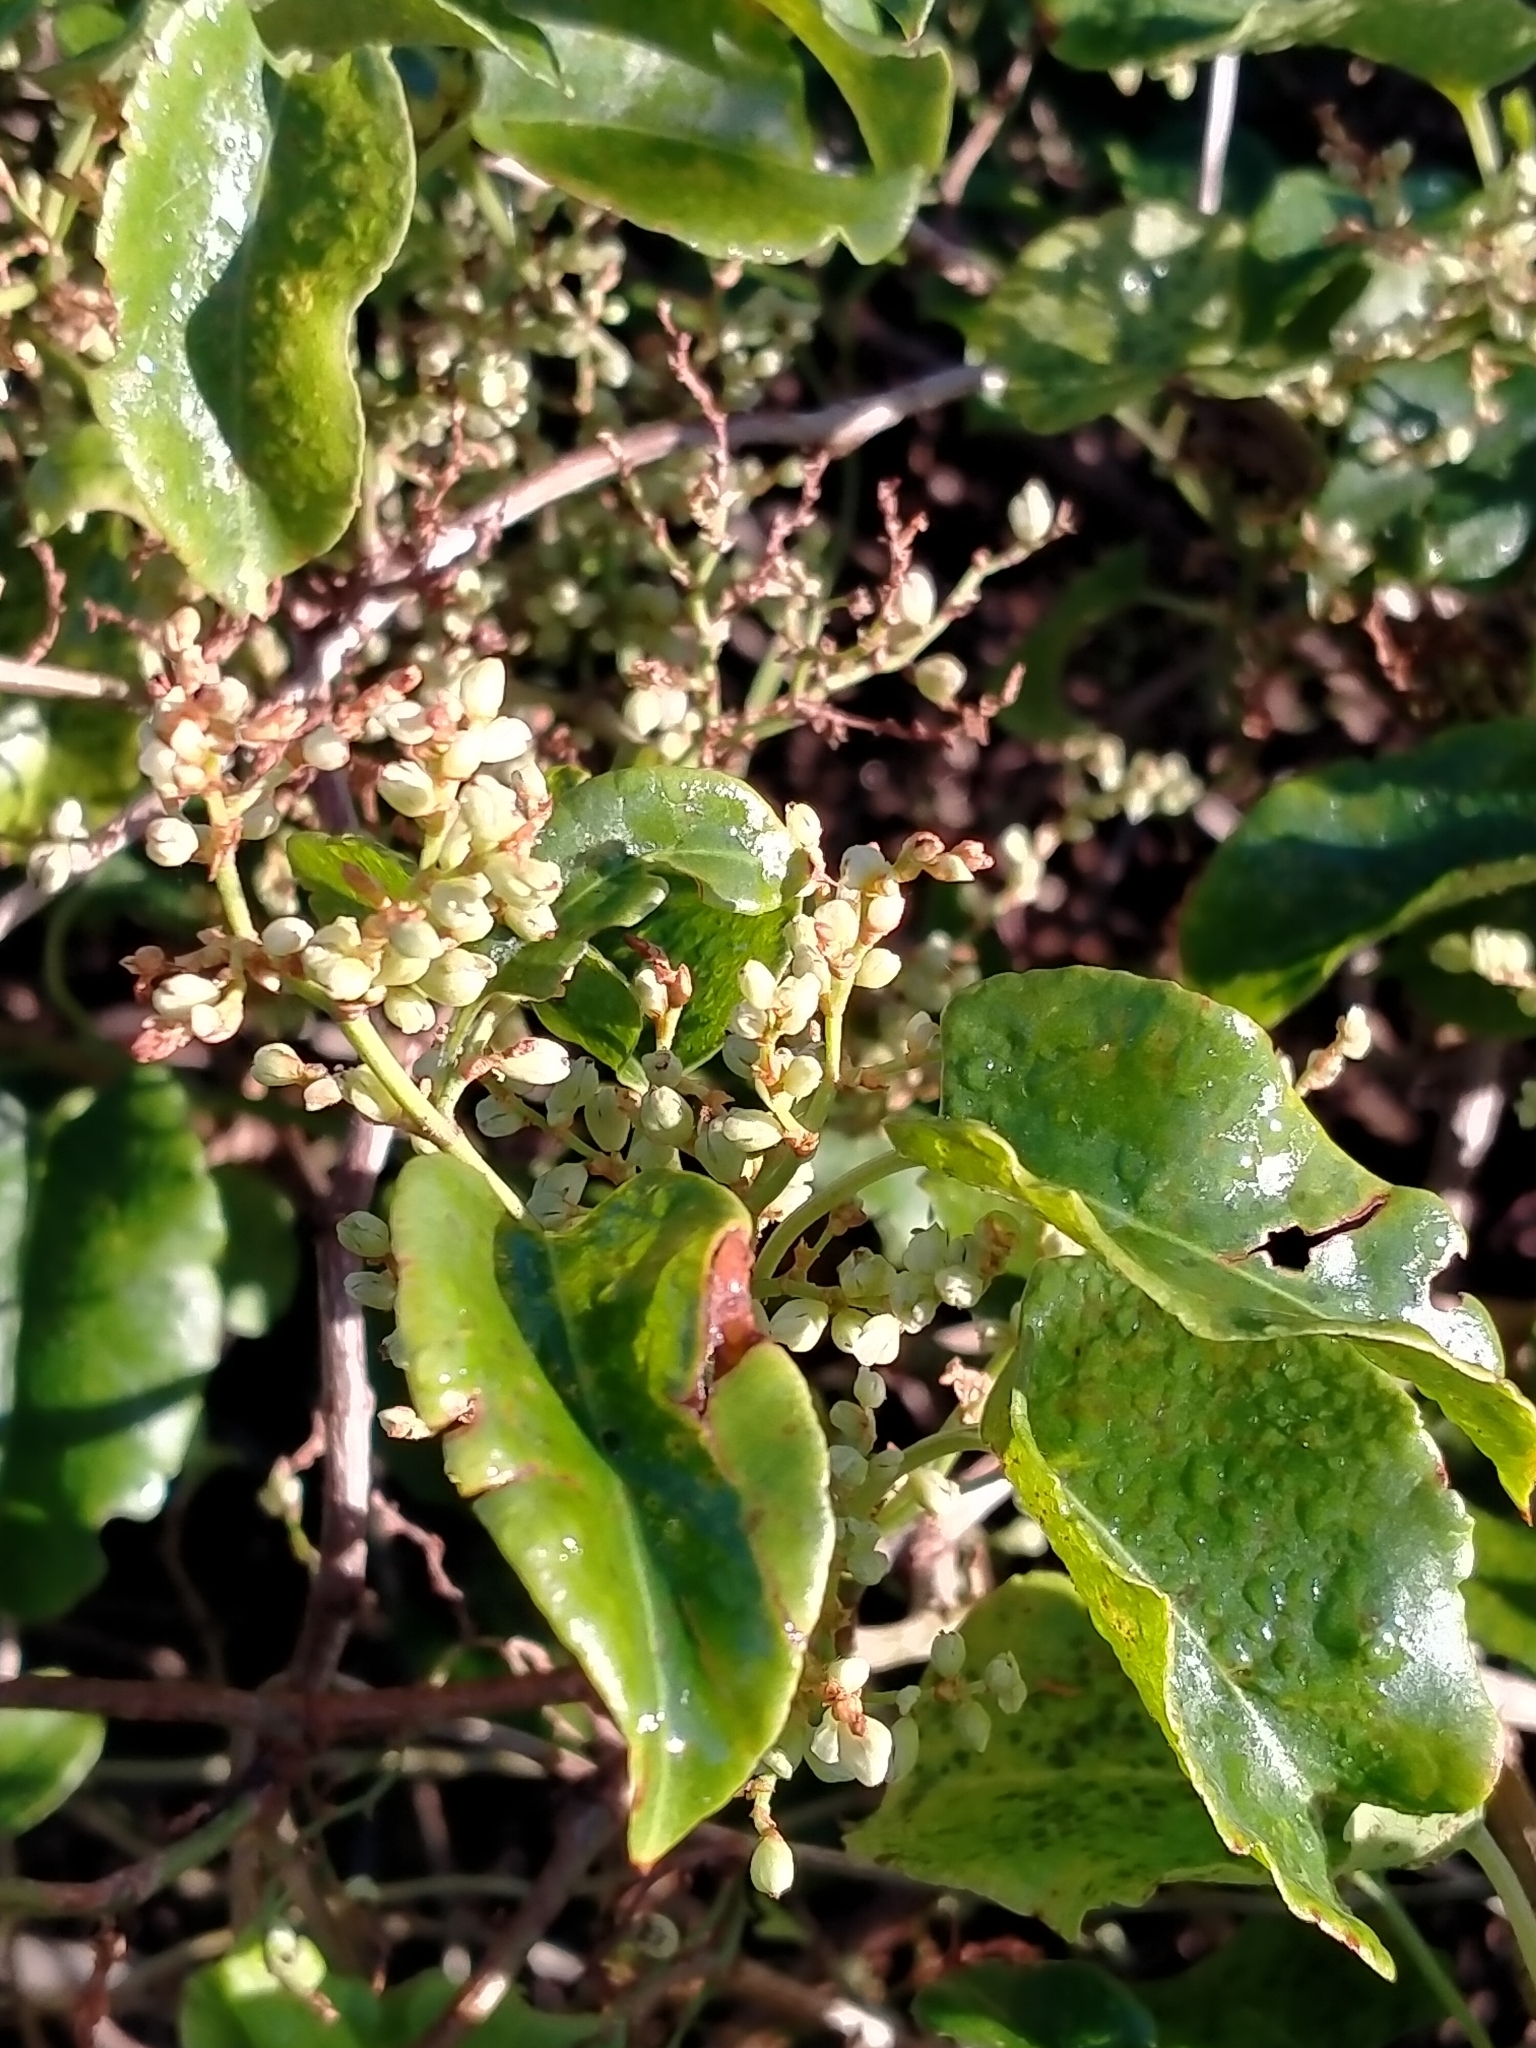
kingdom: Plantae
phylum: Tracheophyta
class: Magnoliopsida
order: Caryophyllales
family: Polygonaceae
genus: Muehlenbeckia
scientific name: Muehlenbeckia australis
